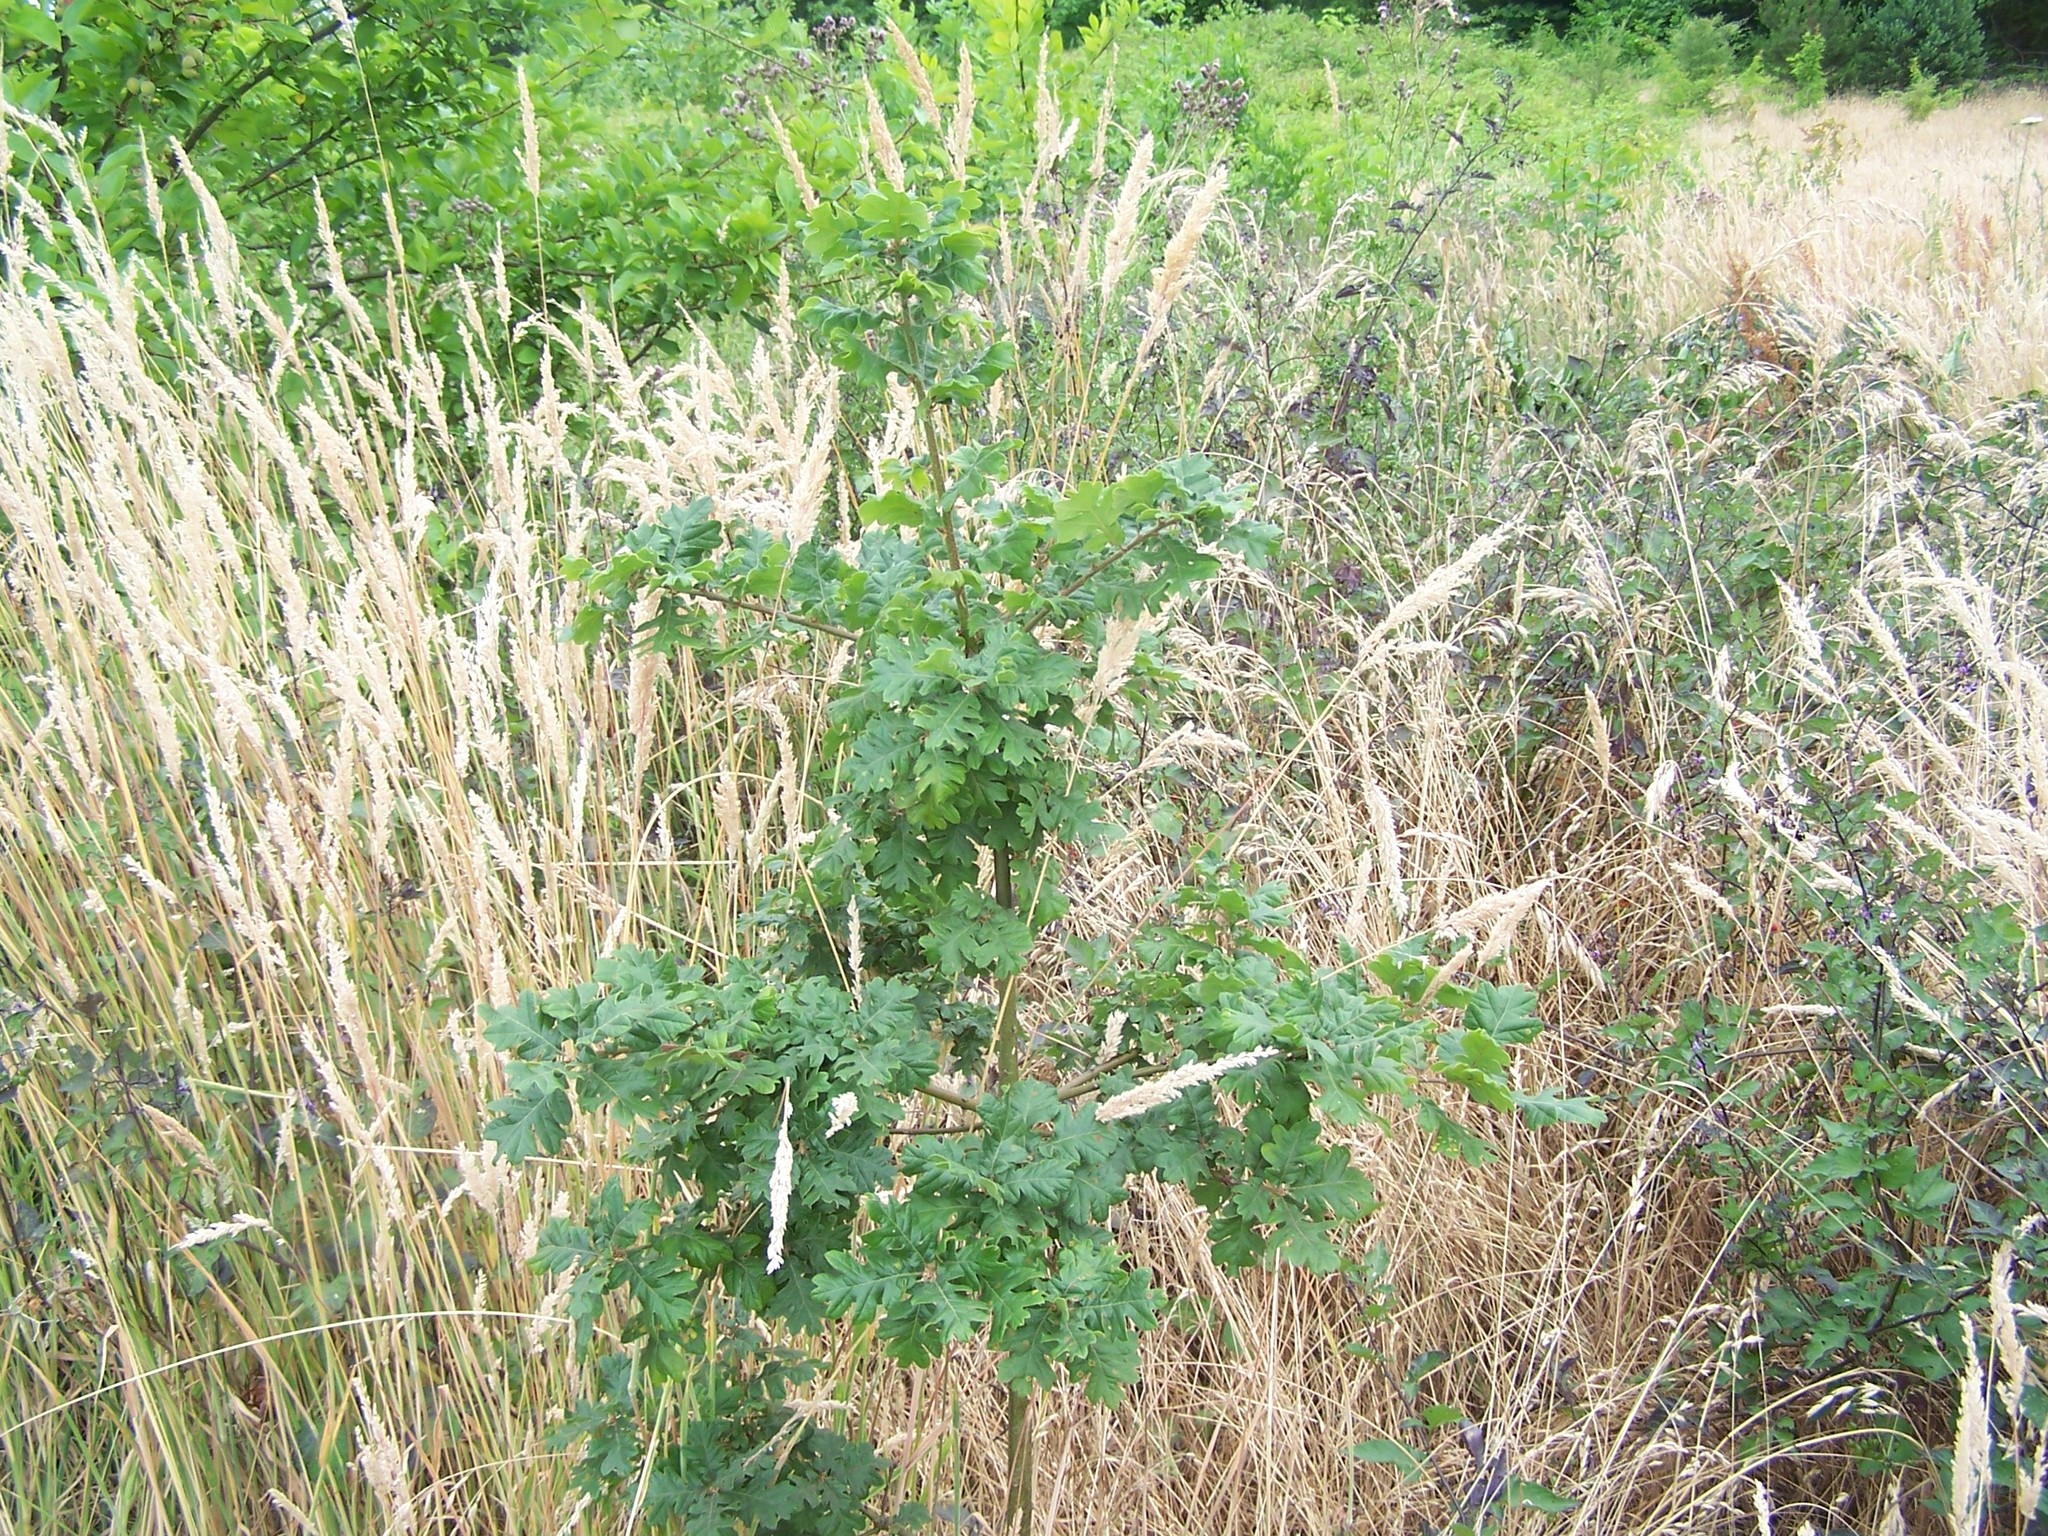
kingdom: Plantae
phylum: Tracheophyta
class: Magnoliopsida
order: Fagales
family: Fagaceae
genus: Quercus
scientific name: Quercus garryana
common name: Garry oak
